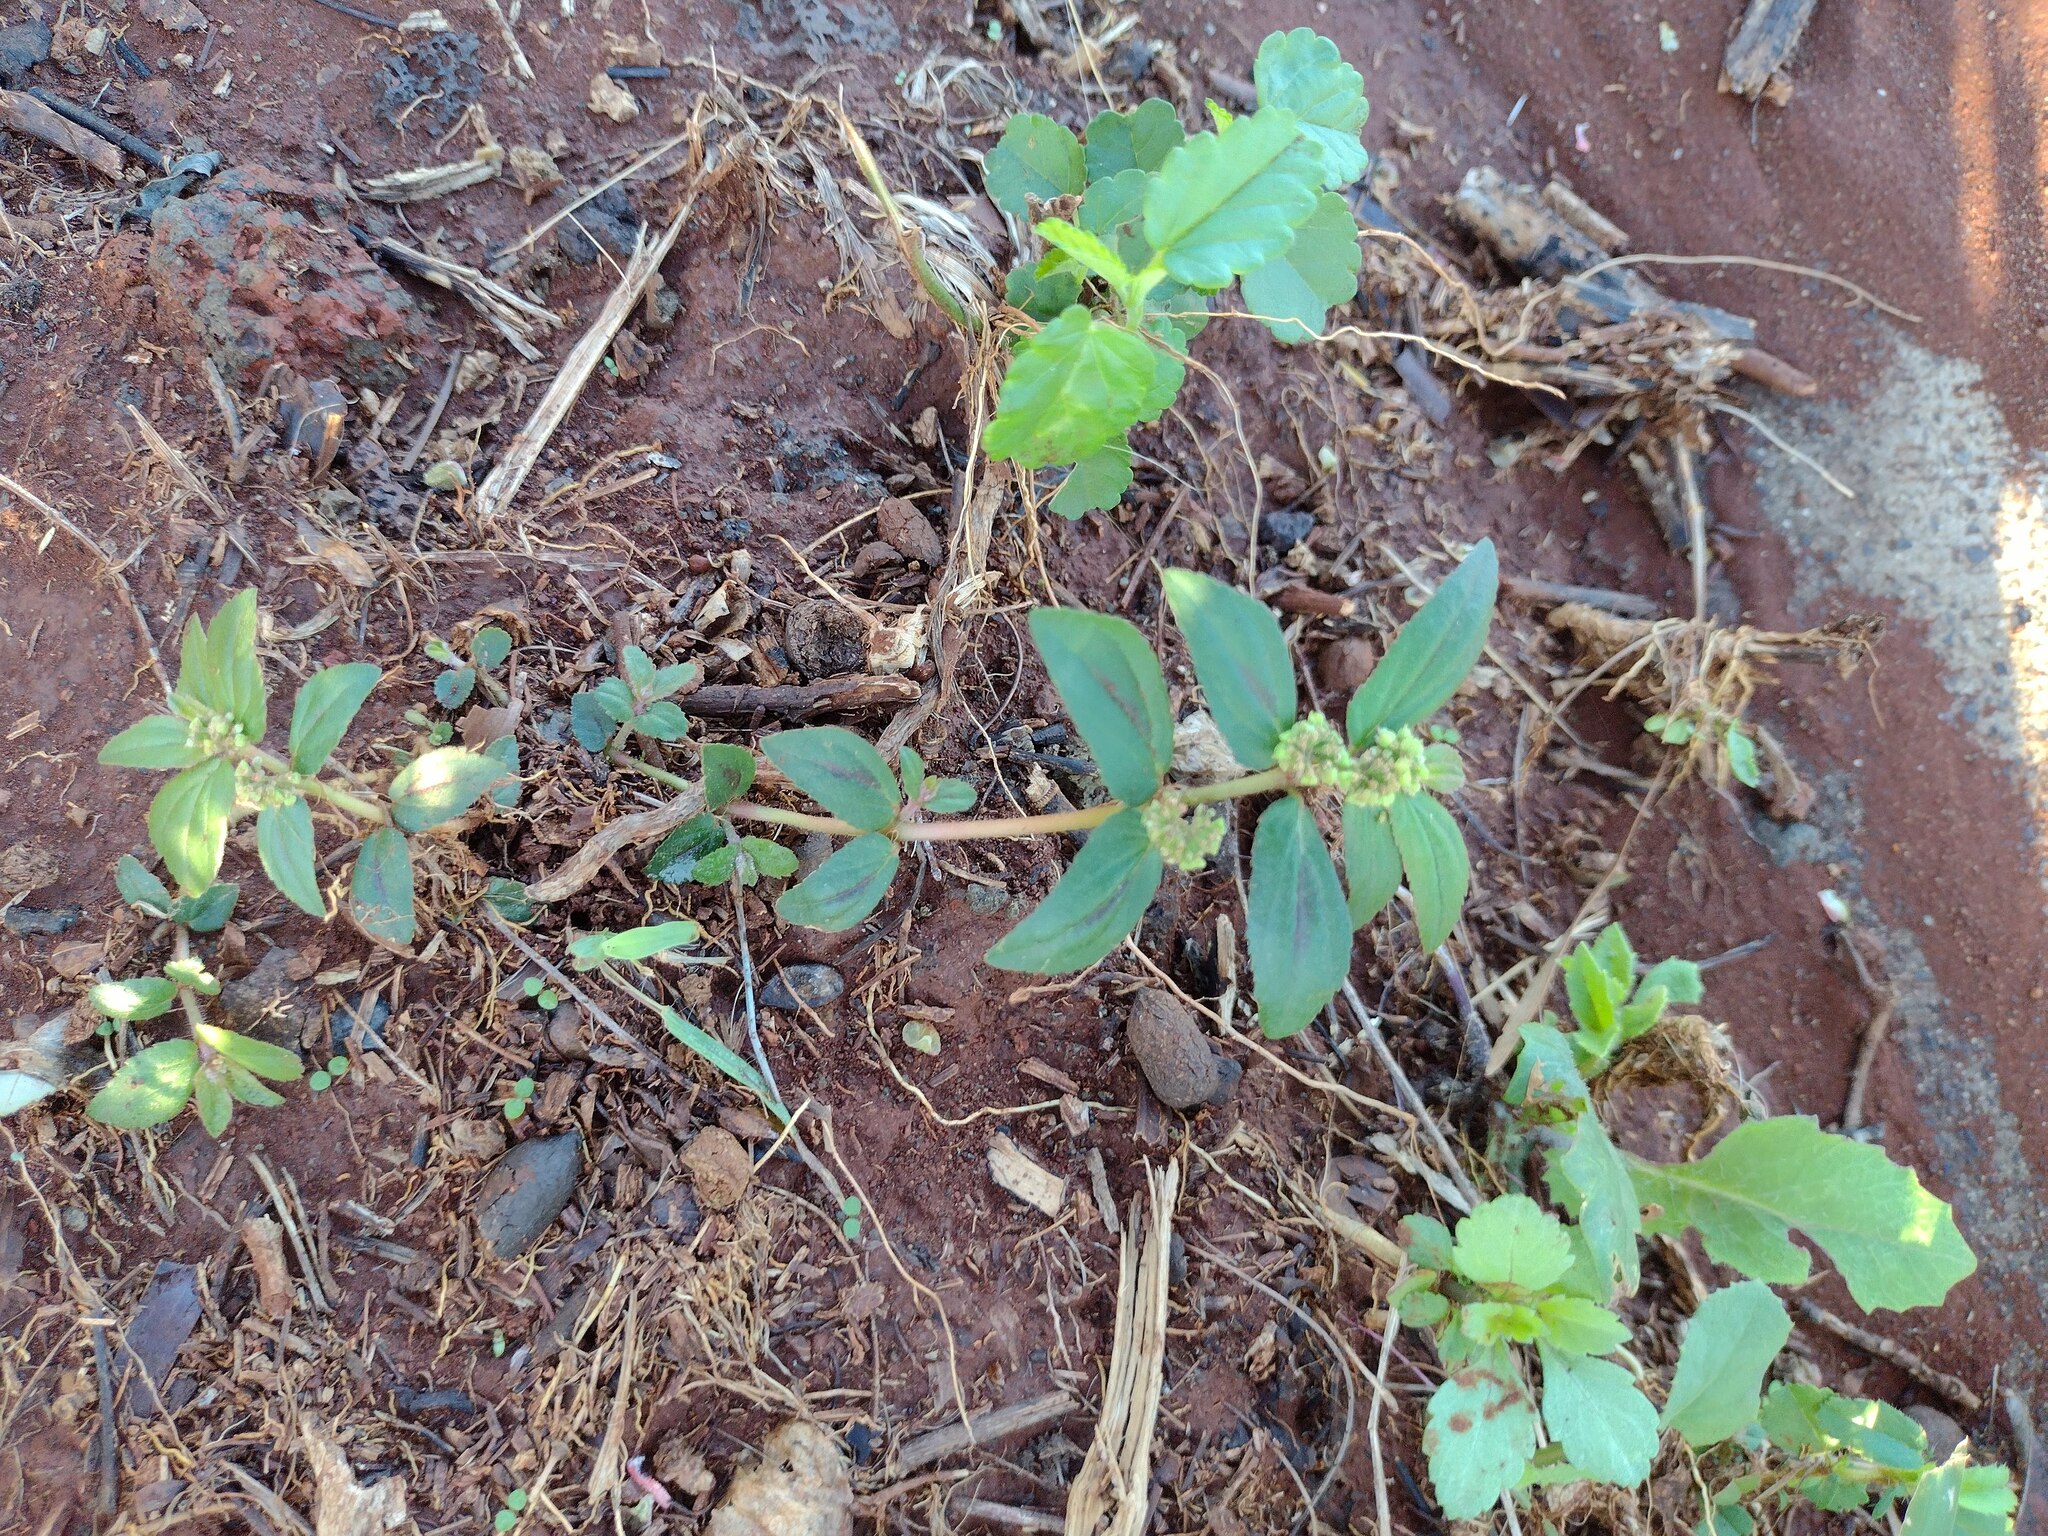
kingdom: Plantae
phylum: Tracheophyta
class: Magnoliopsida
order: Malpighiales
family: Euphorbiaceae
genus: Euphorbia
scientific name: Euphorbia hirta
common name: Pillpod sandmat
